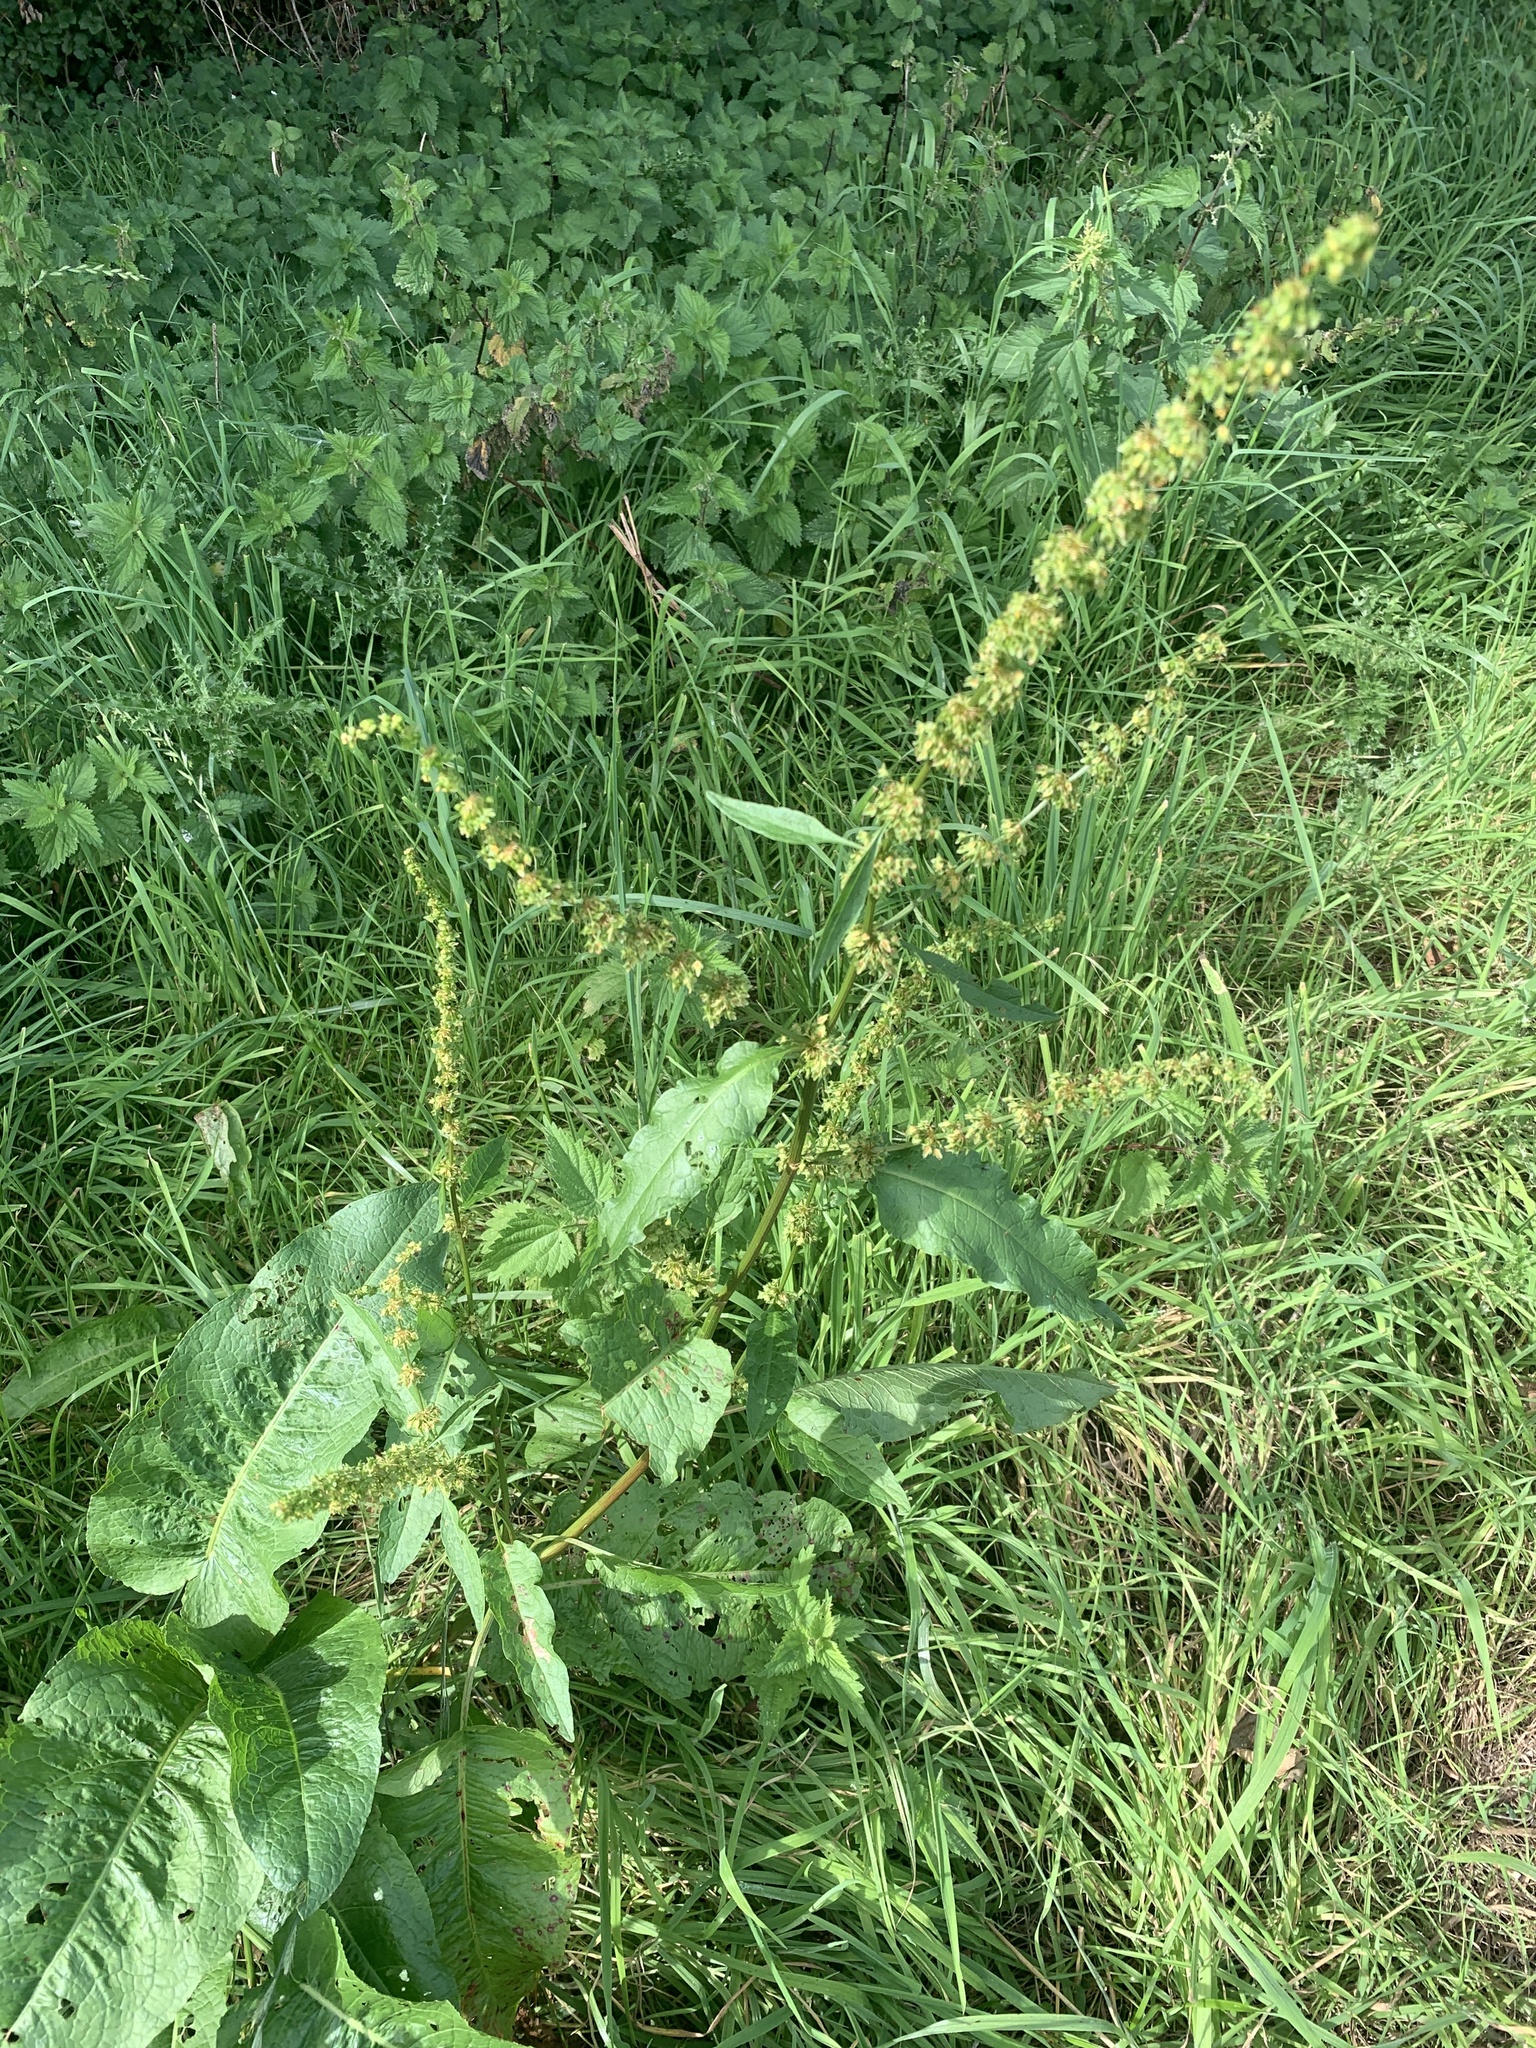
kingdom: Plantae
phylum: Tracheophyta
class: Magnoliopsida
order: Caryophyllales
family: Polygonaceae
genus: Rumex
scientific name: Rumex obtusifolius
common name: Bitter dock
